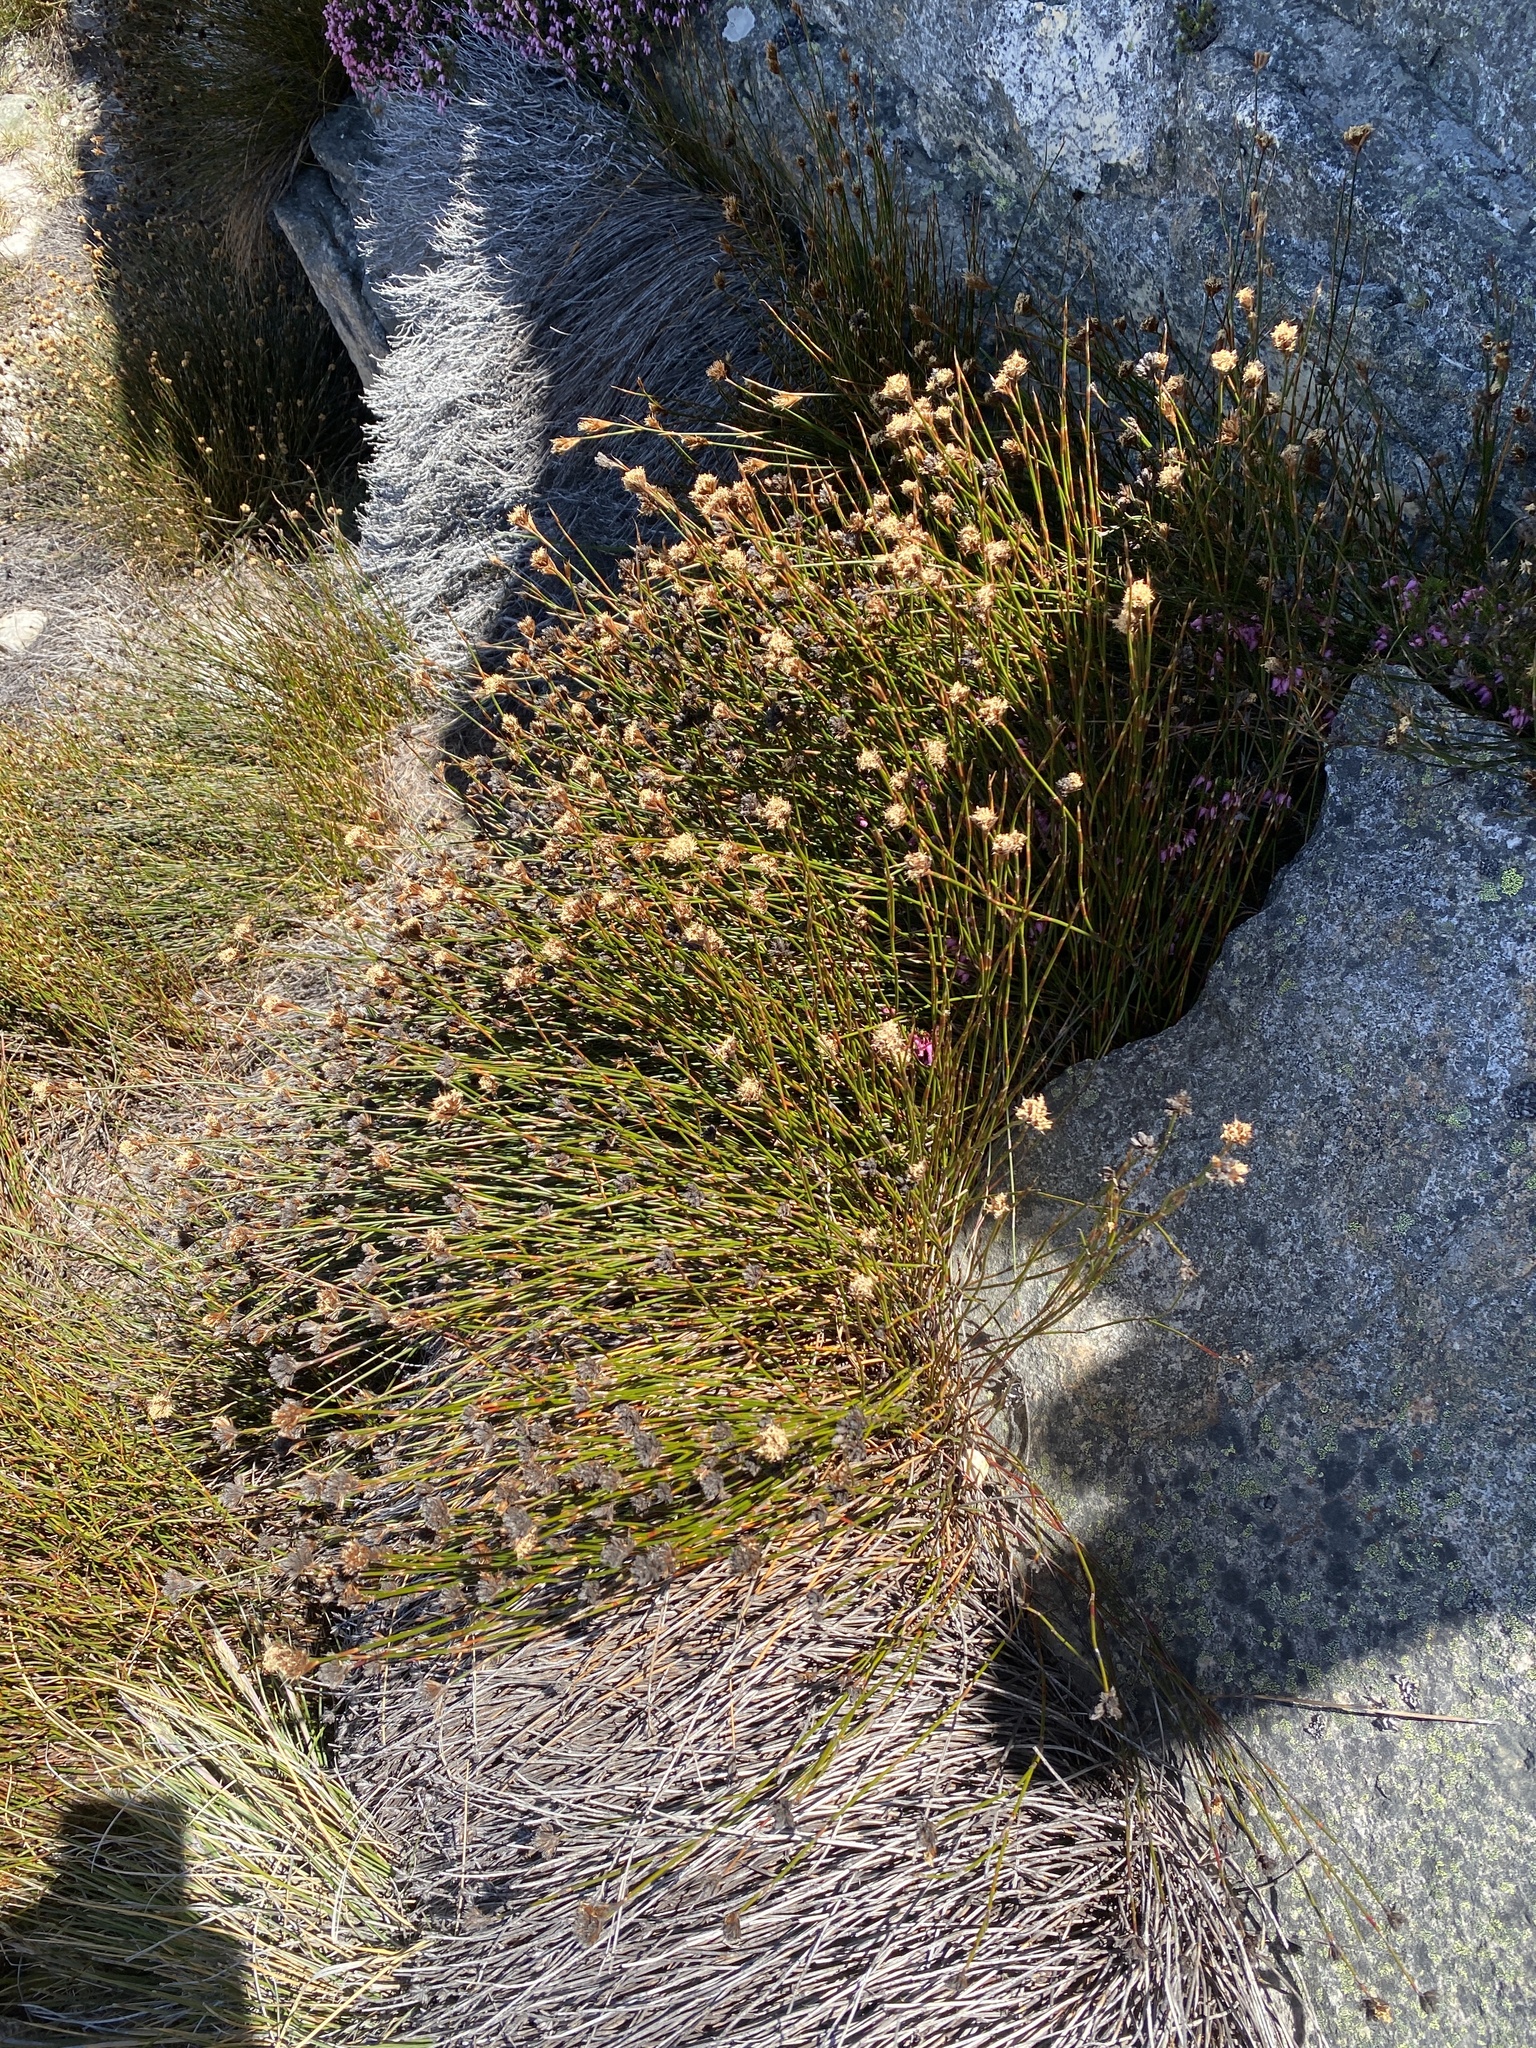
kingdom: Plantae
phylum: Tracheophyta
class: Liliopsida
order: Poales
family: Restionaceae
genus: Restio
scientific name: Restio virgeus
